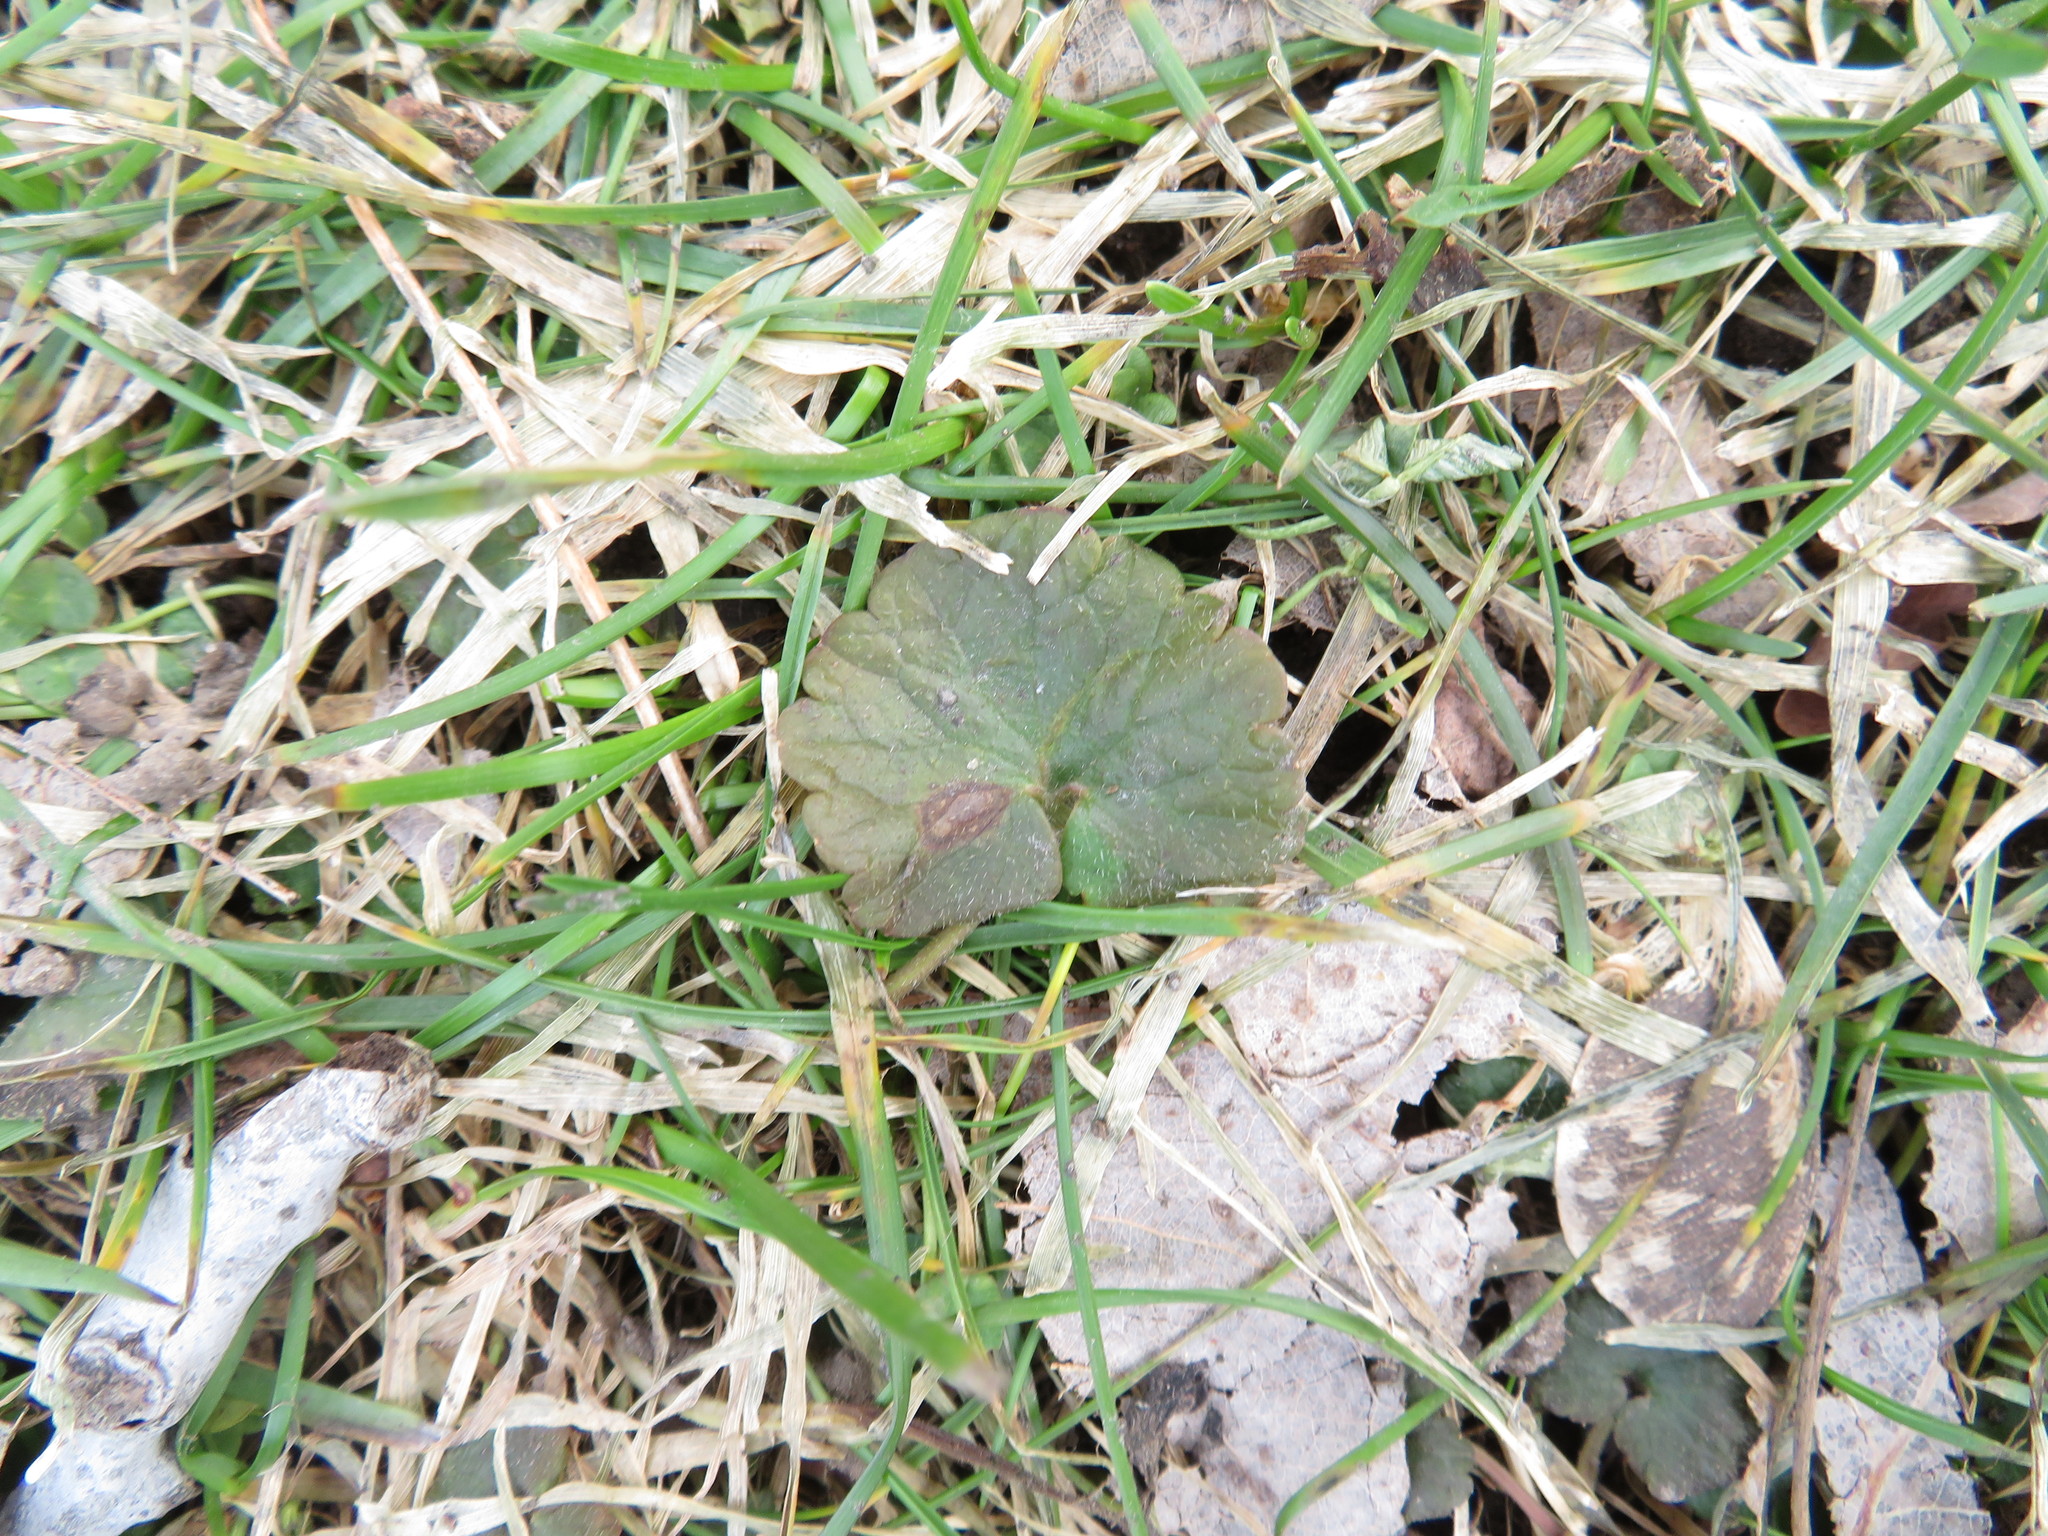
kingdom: Plantae
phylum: Tracheophyta
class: Magnoliopsida
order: Lamiales
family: Lamiaceae
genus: Glechoma
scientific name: Glechoma hederacea
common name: Ground ivy
